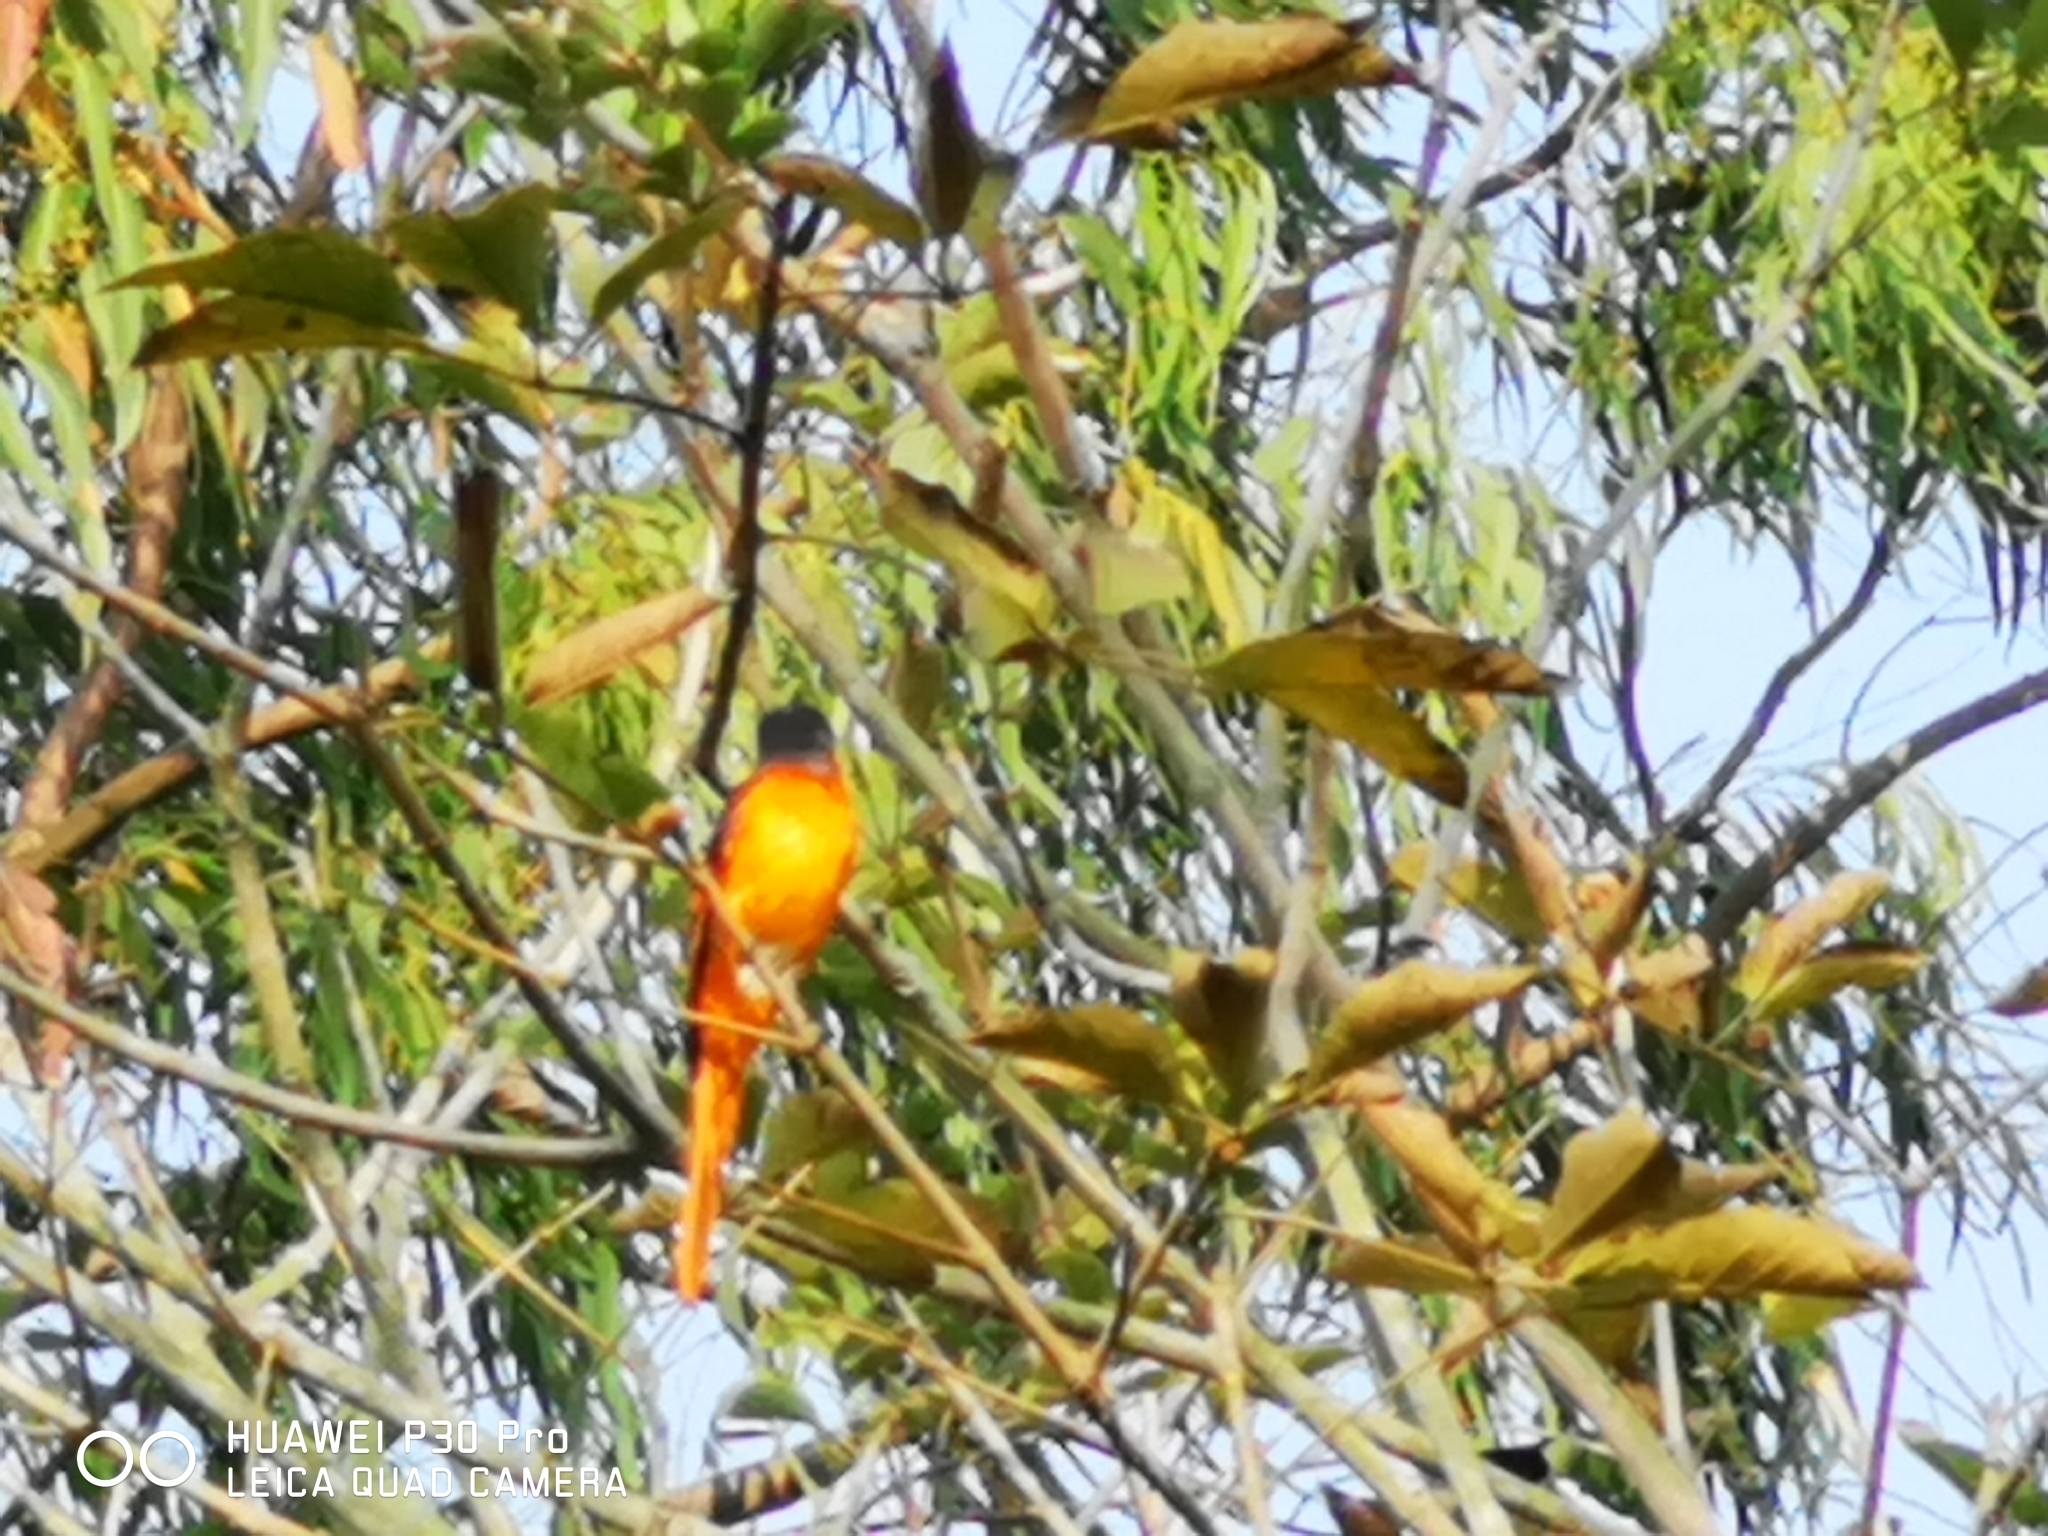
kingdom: Animalia
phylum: Chordata
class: Aves
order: Passeriformes
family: Campephagidae
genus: Pericrocotus
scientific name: Pericrocotus solaris
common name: Grey-chinned minivet
